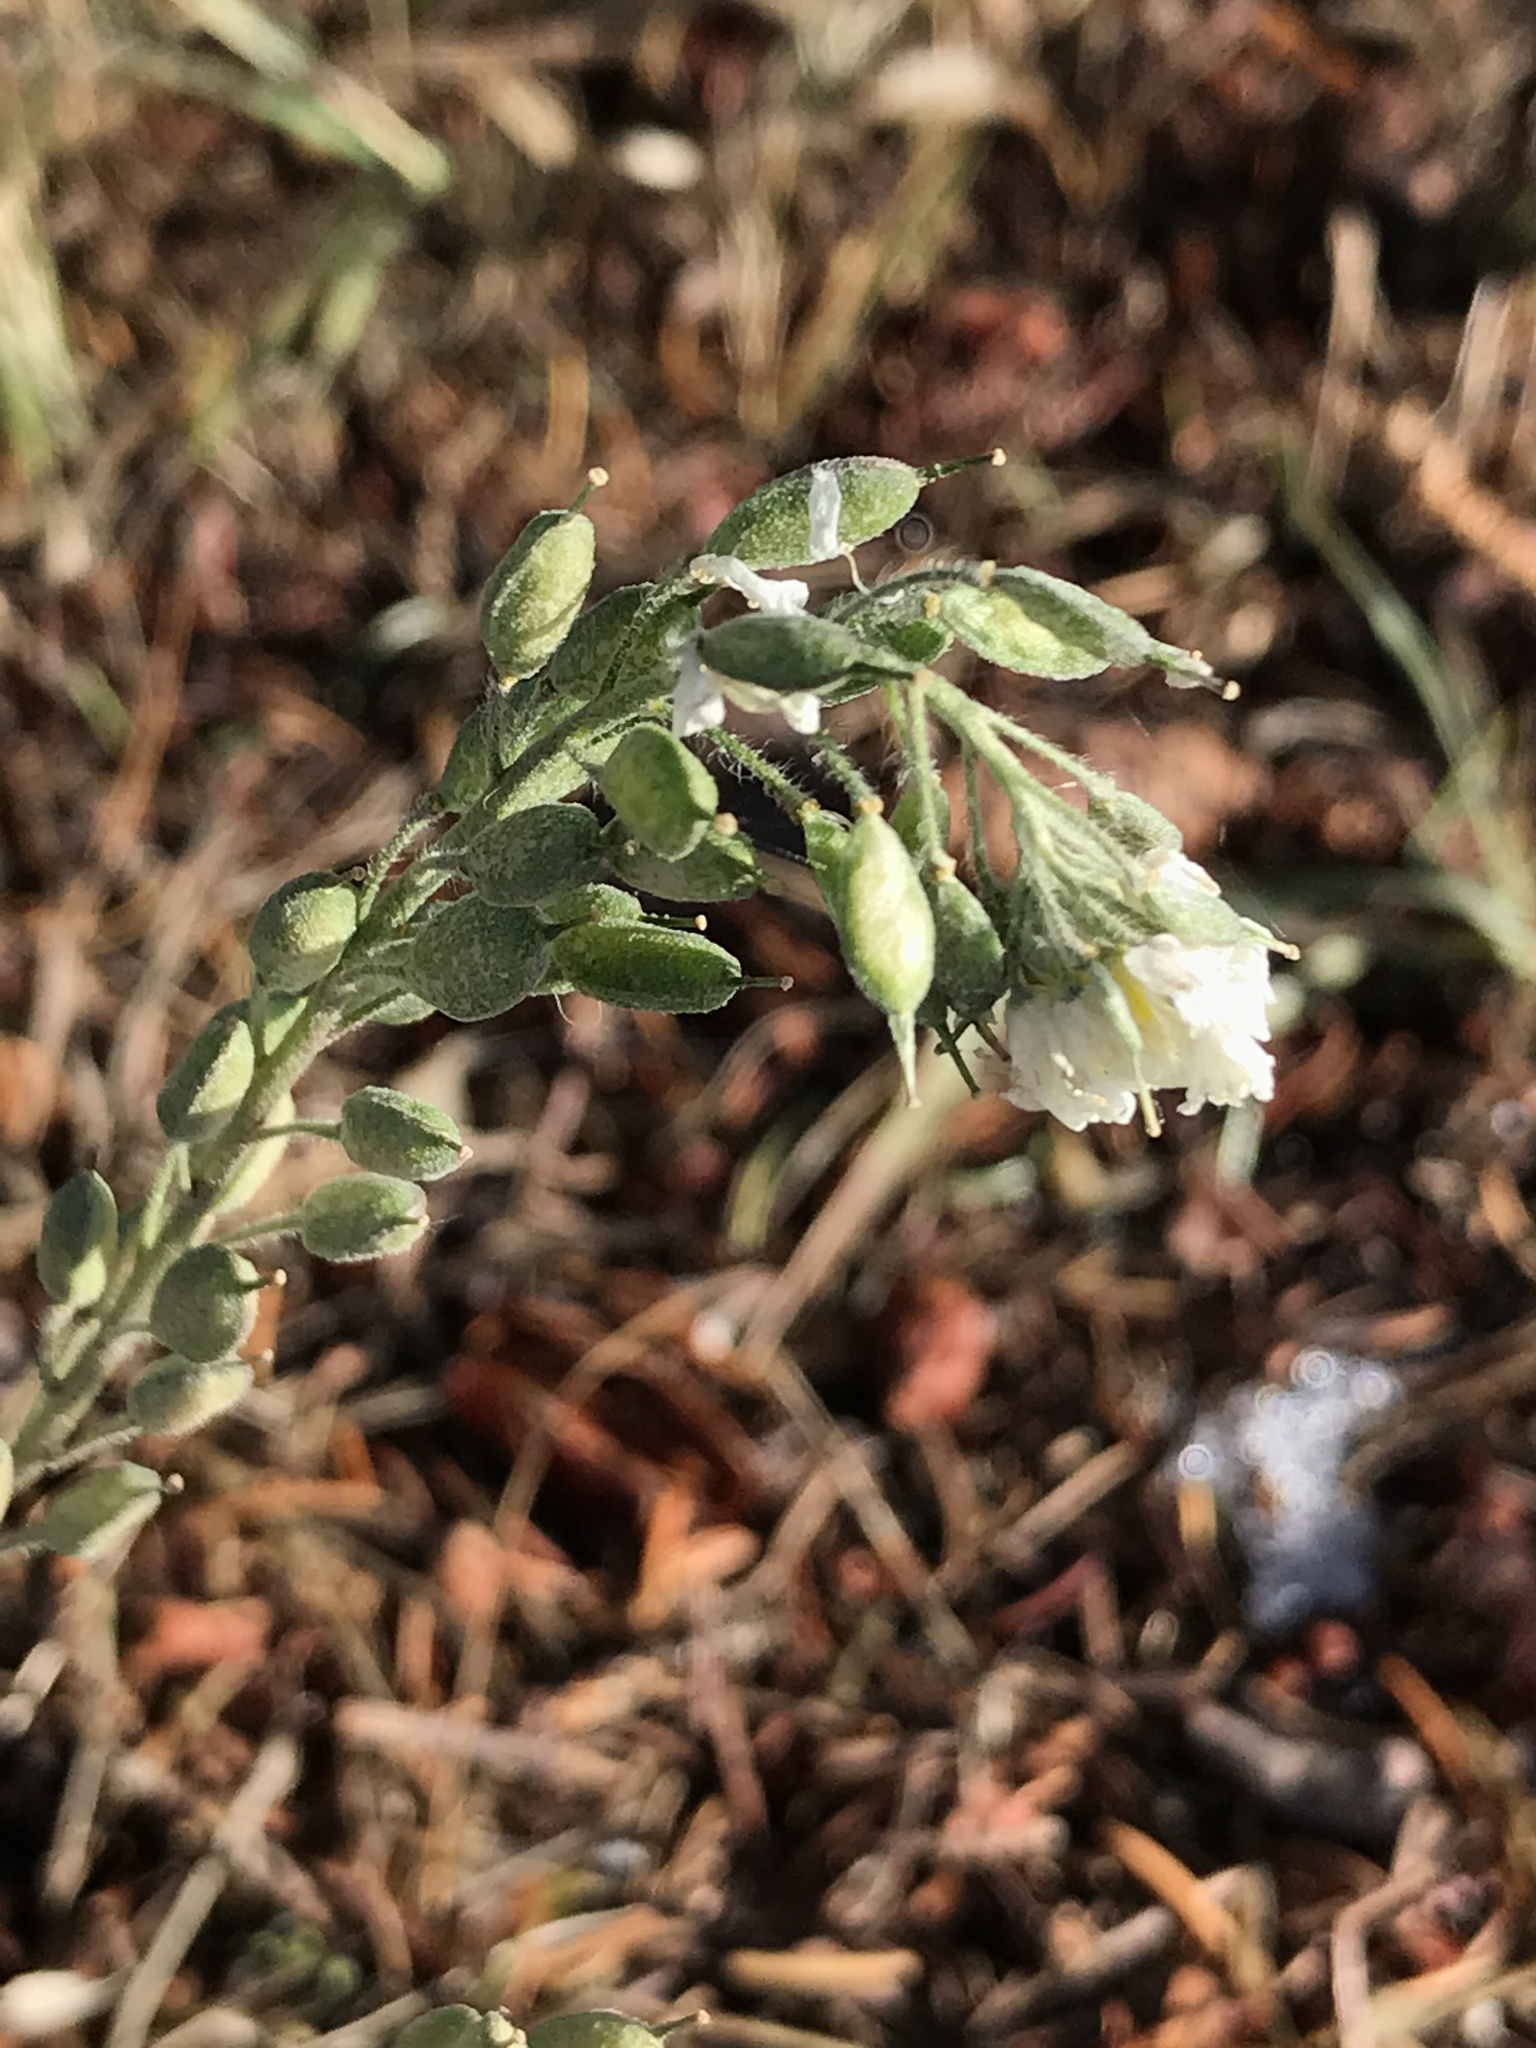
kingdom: Plantae
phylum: Tracheophyta
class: Magnoliopsida
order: Brassicales
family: Brassicaceae
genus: Berteroa
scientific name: Berteroa incana
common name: Hoary alison
